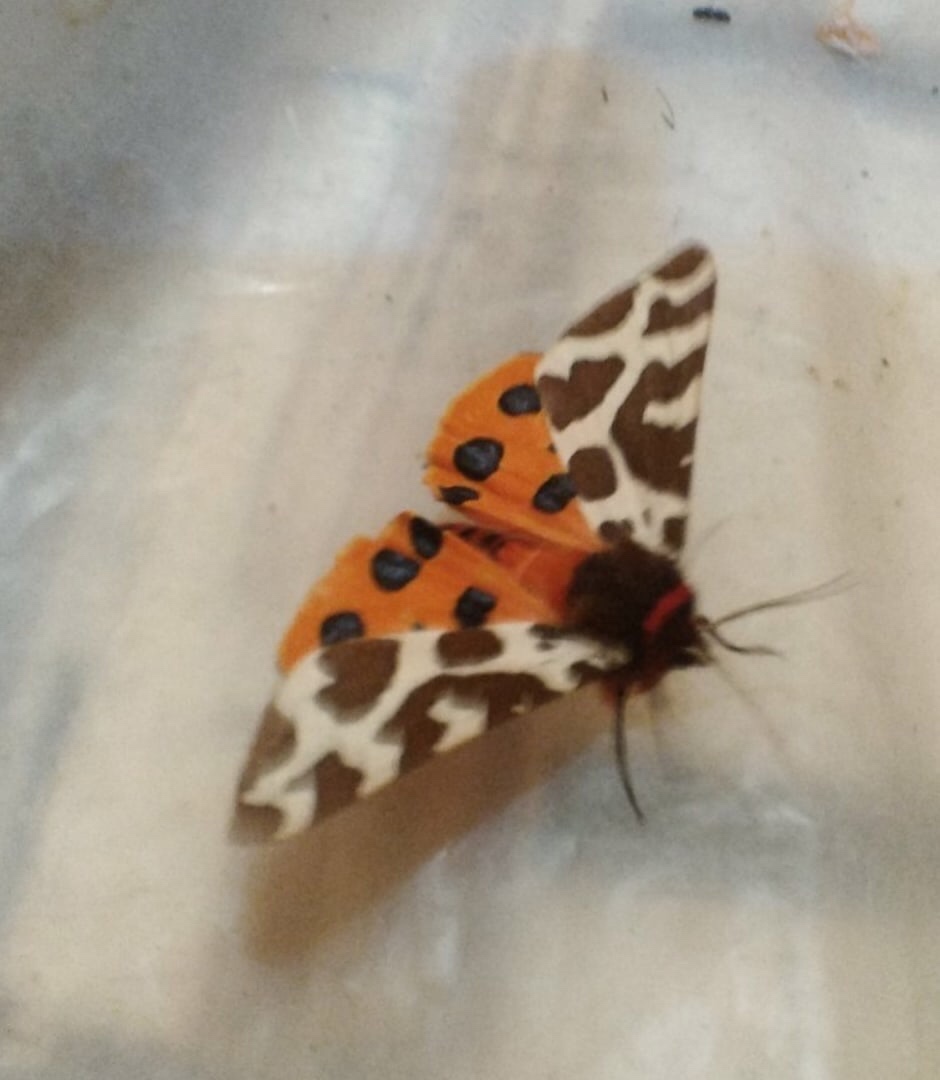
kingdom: Animalia
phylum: Arthropoda
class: Insecta
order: Lepidoptera
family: Erebidae
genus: Arctia
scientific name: Arctia caja
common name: Garden tiger
